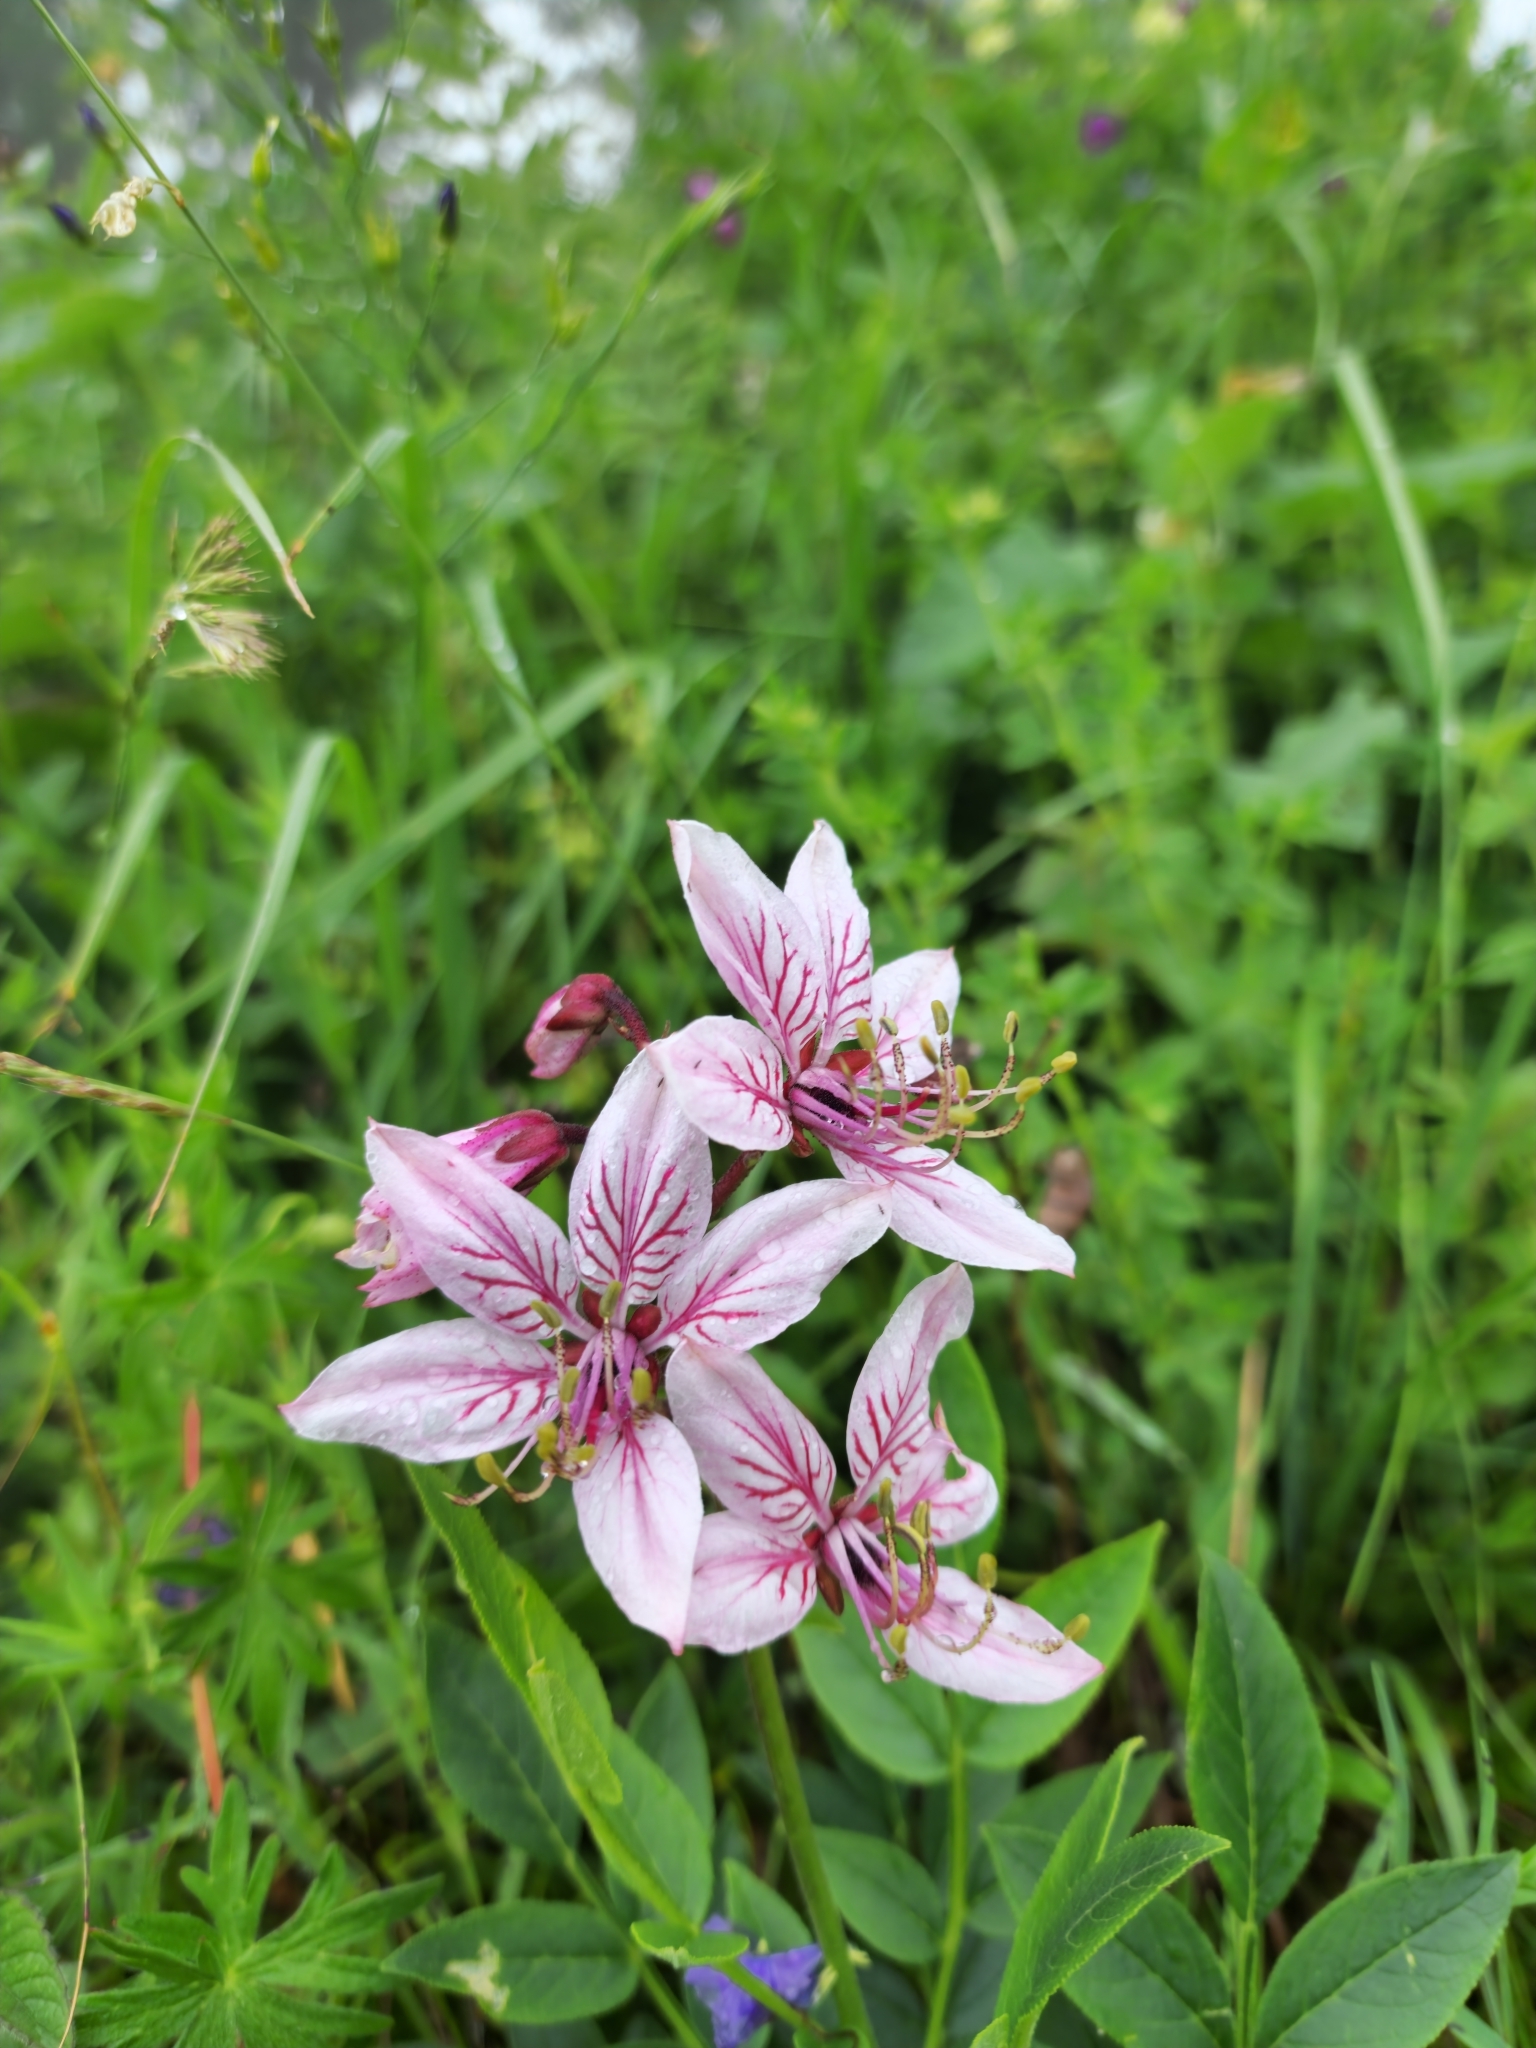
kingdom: Plantae
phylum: Tracheophyta
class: Magnoliopsida
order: Sapindales
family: Rutaceae
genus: Dictamnus
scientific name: Dictamnus albus
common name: Gasplant
